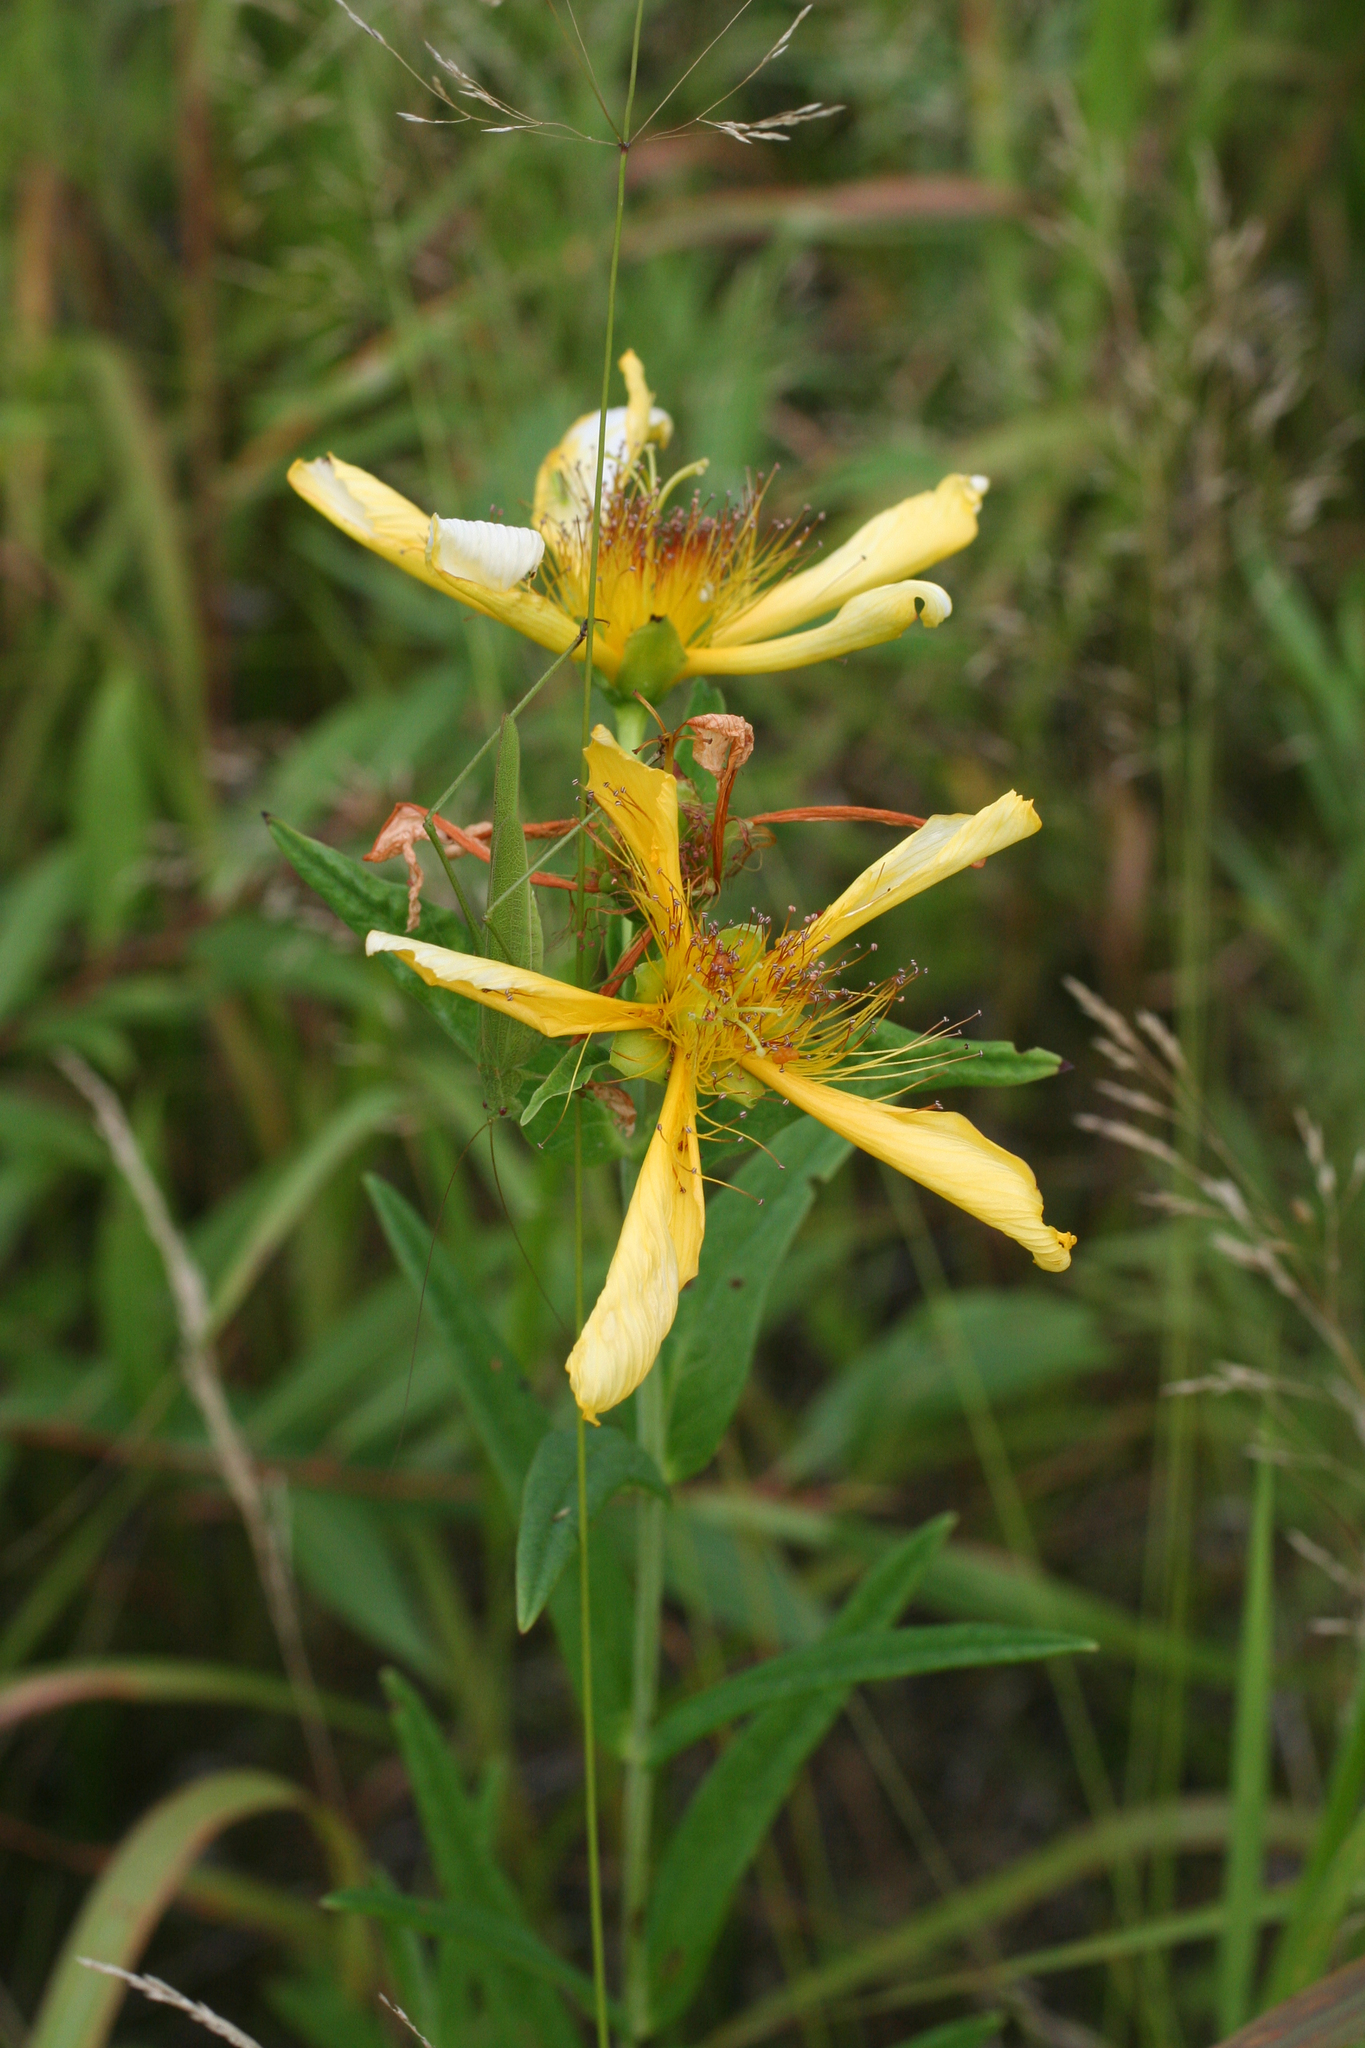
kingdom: Plantae
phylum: Tracheophyta
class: Magnoliopsida
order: Malpighiales
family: Hypericaceae
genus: Hypericum
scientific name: Hypericum ascyron
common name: Giant st. john's-wort
